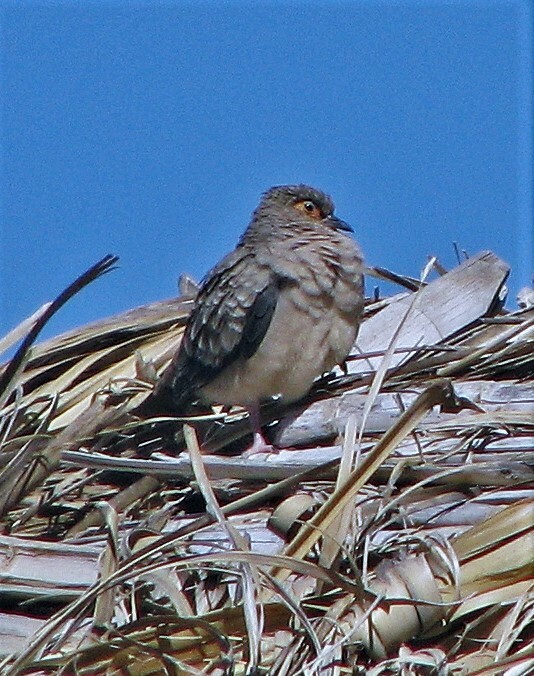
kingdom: Animalia
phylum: Chordata
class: Aves
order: Columbiformes
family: Columbidae
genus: Metriopelia
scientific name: Metriopelia ceciliae
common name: Bare-faced ground dove
